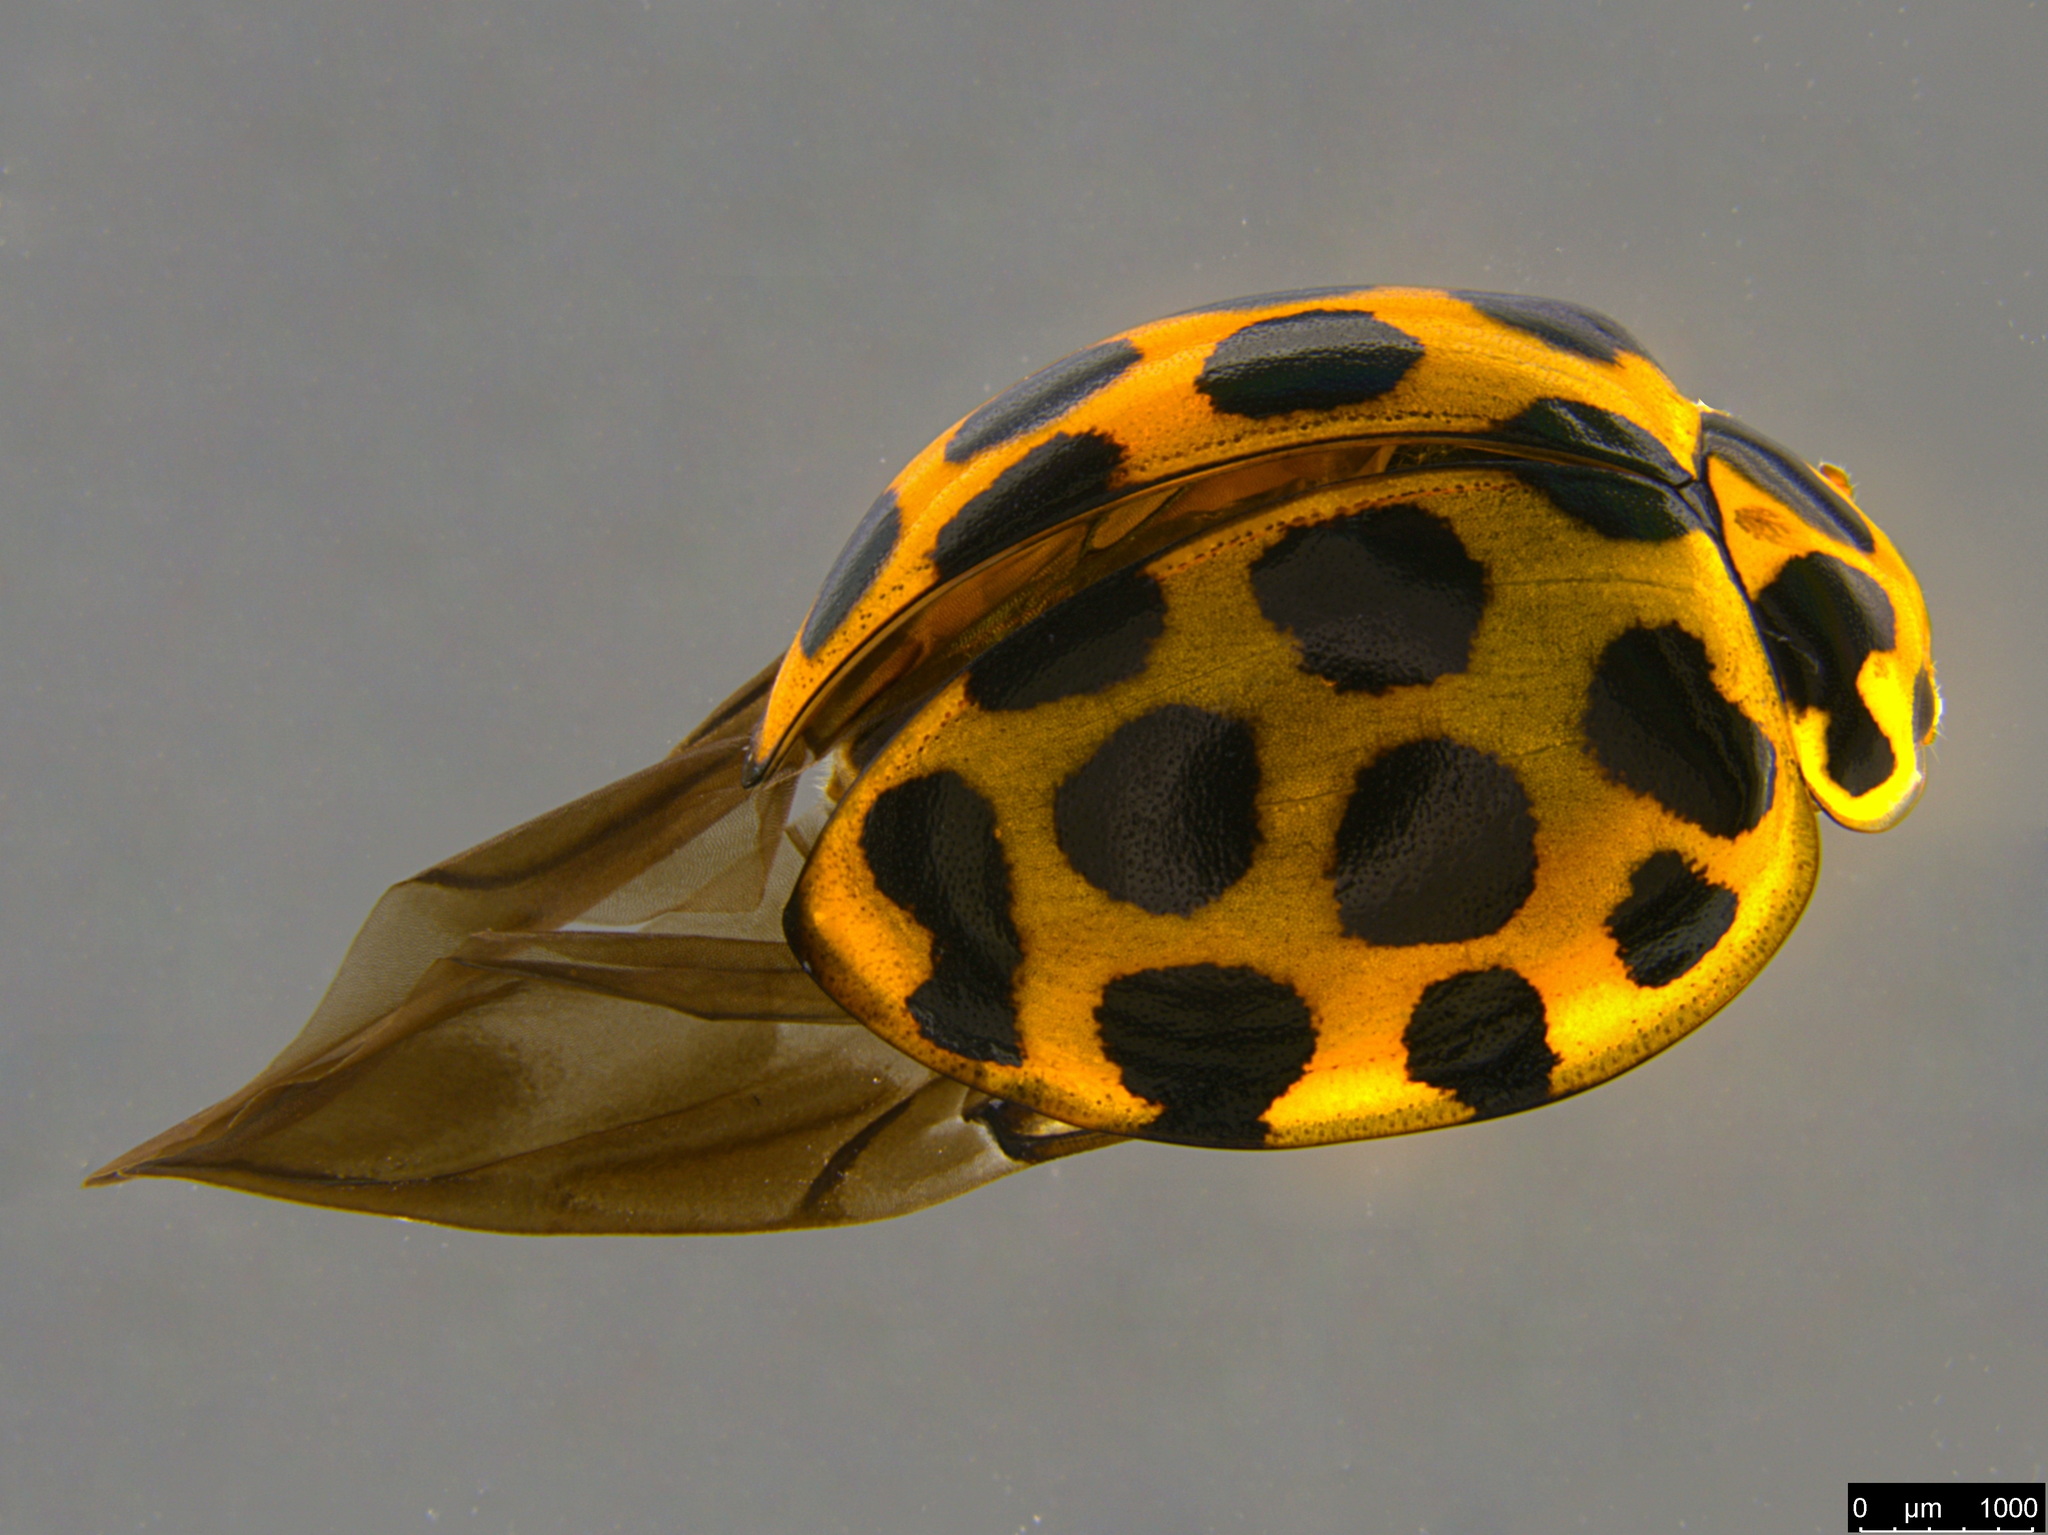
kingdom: Animalia
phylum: Arthropoda
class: Insecta
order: Coleoptera
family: Coccinellidae
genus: Harmonia
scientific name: Harmonia conformis
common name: Common spotted ladybird beetle
